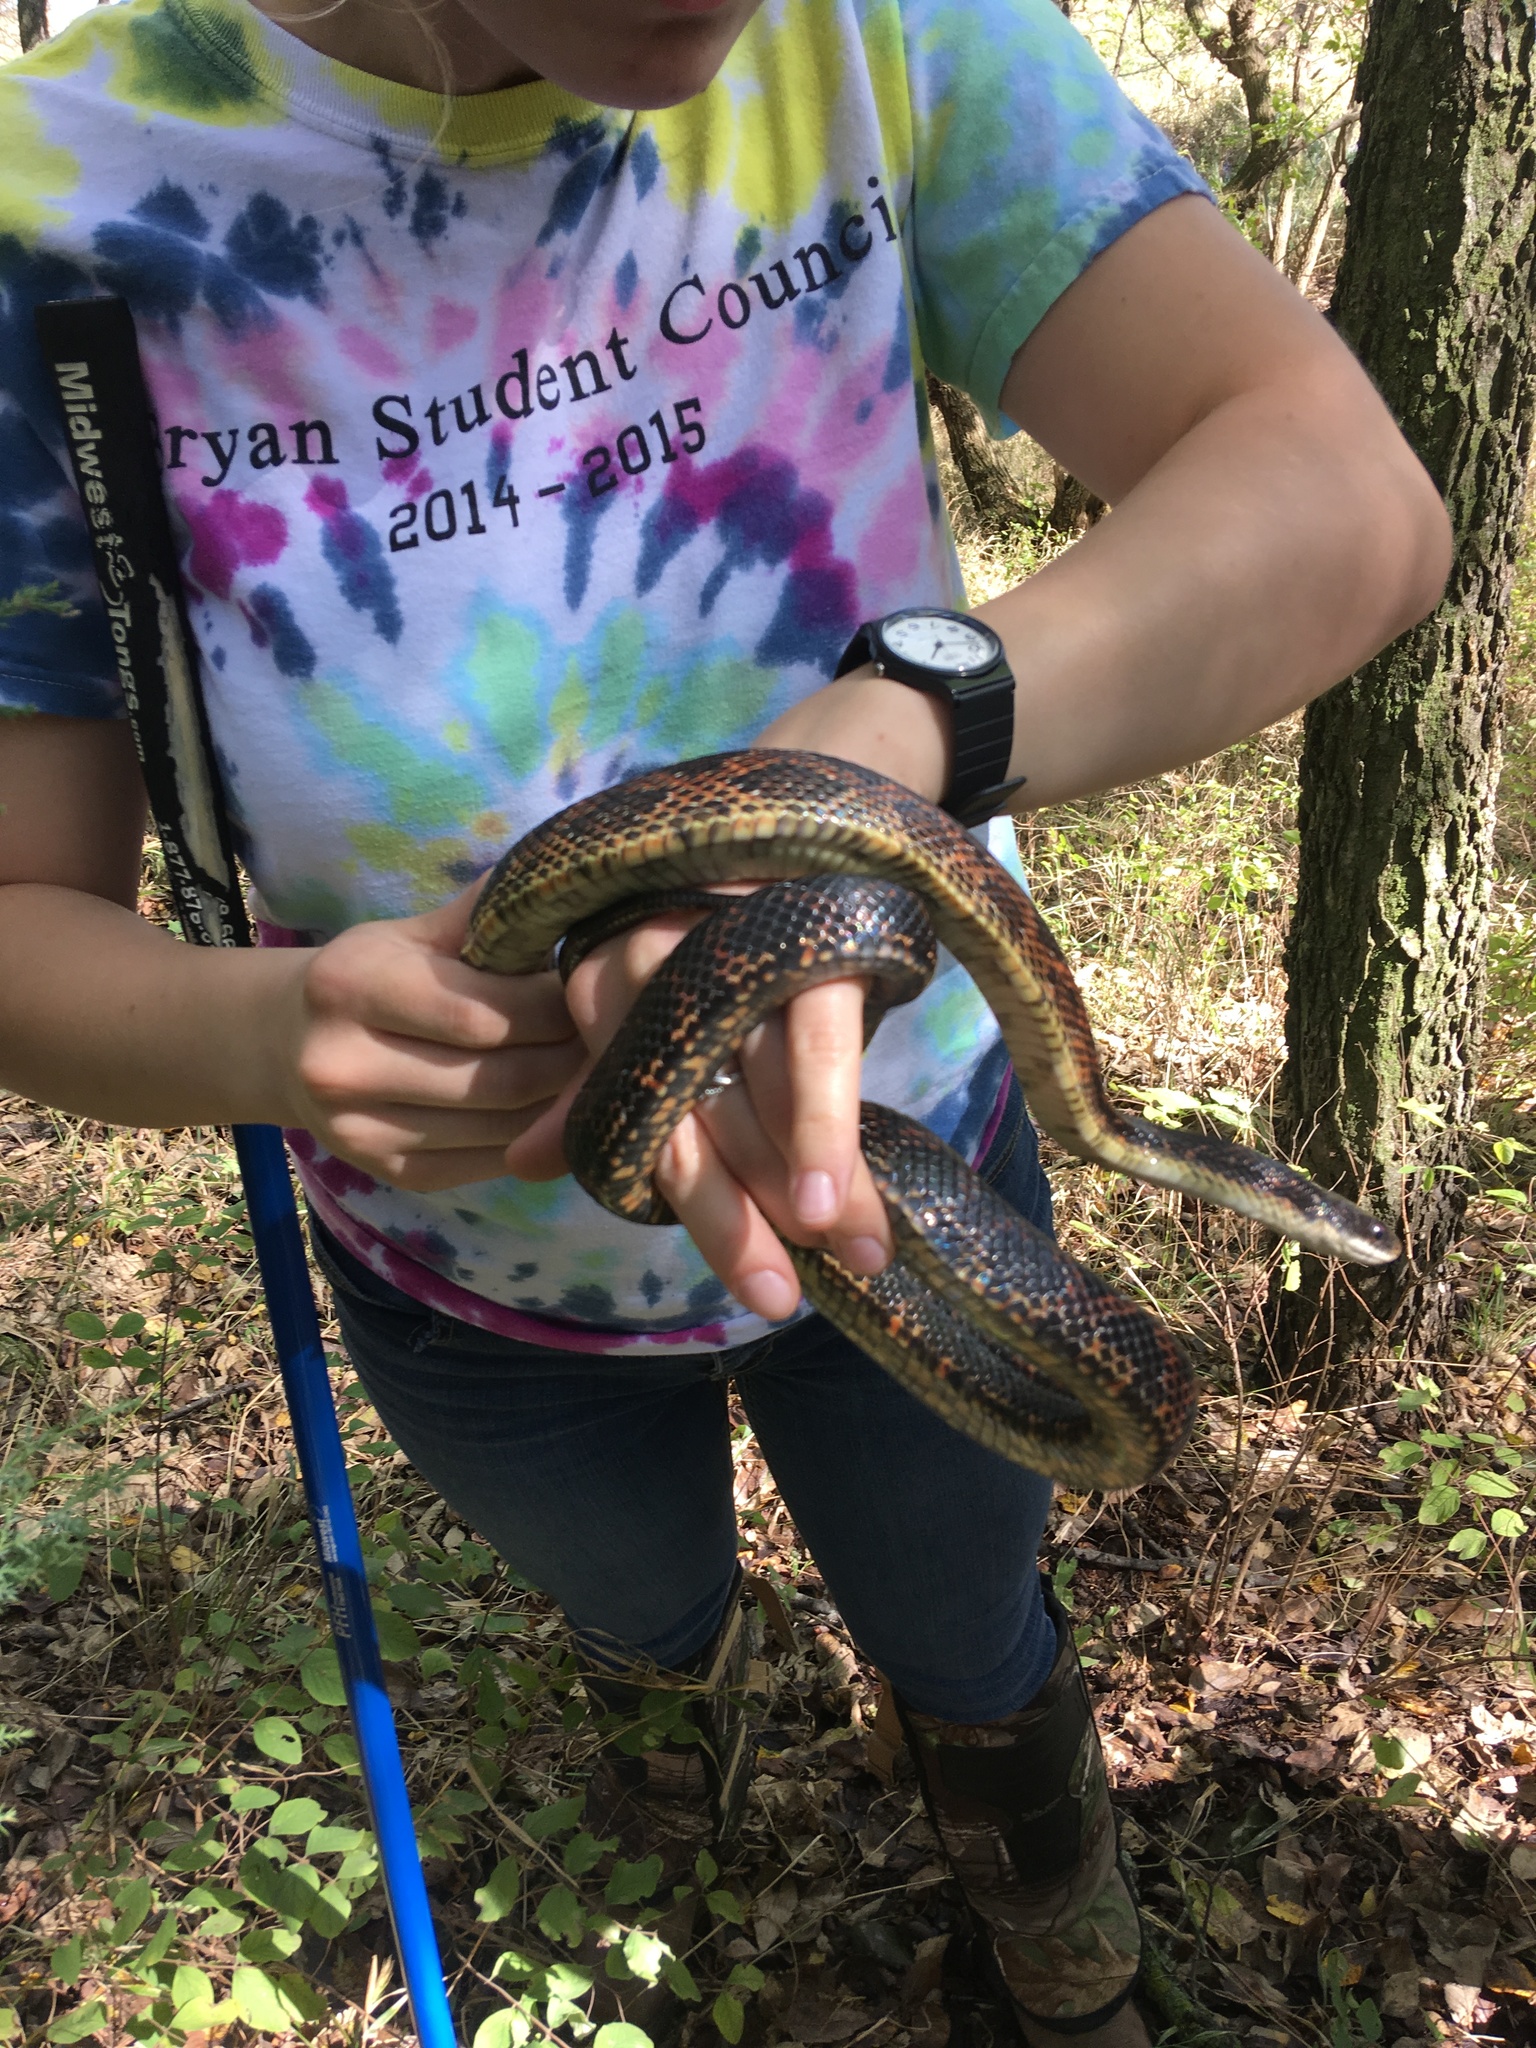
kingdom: Animalia
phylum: Chordata
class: Squamata
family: Colubridae
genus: Pantherophis
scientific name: Pantherophis obsoletus
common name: Black rat snake
